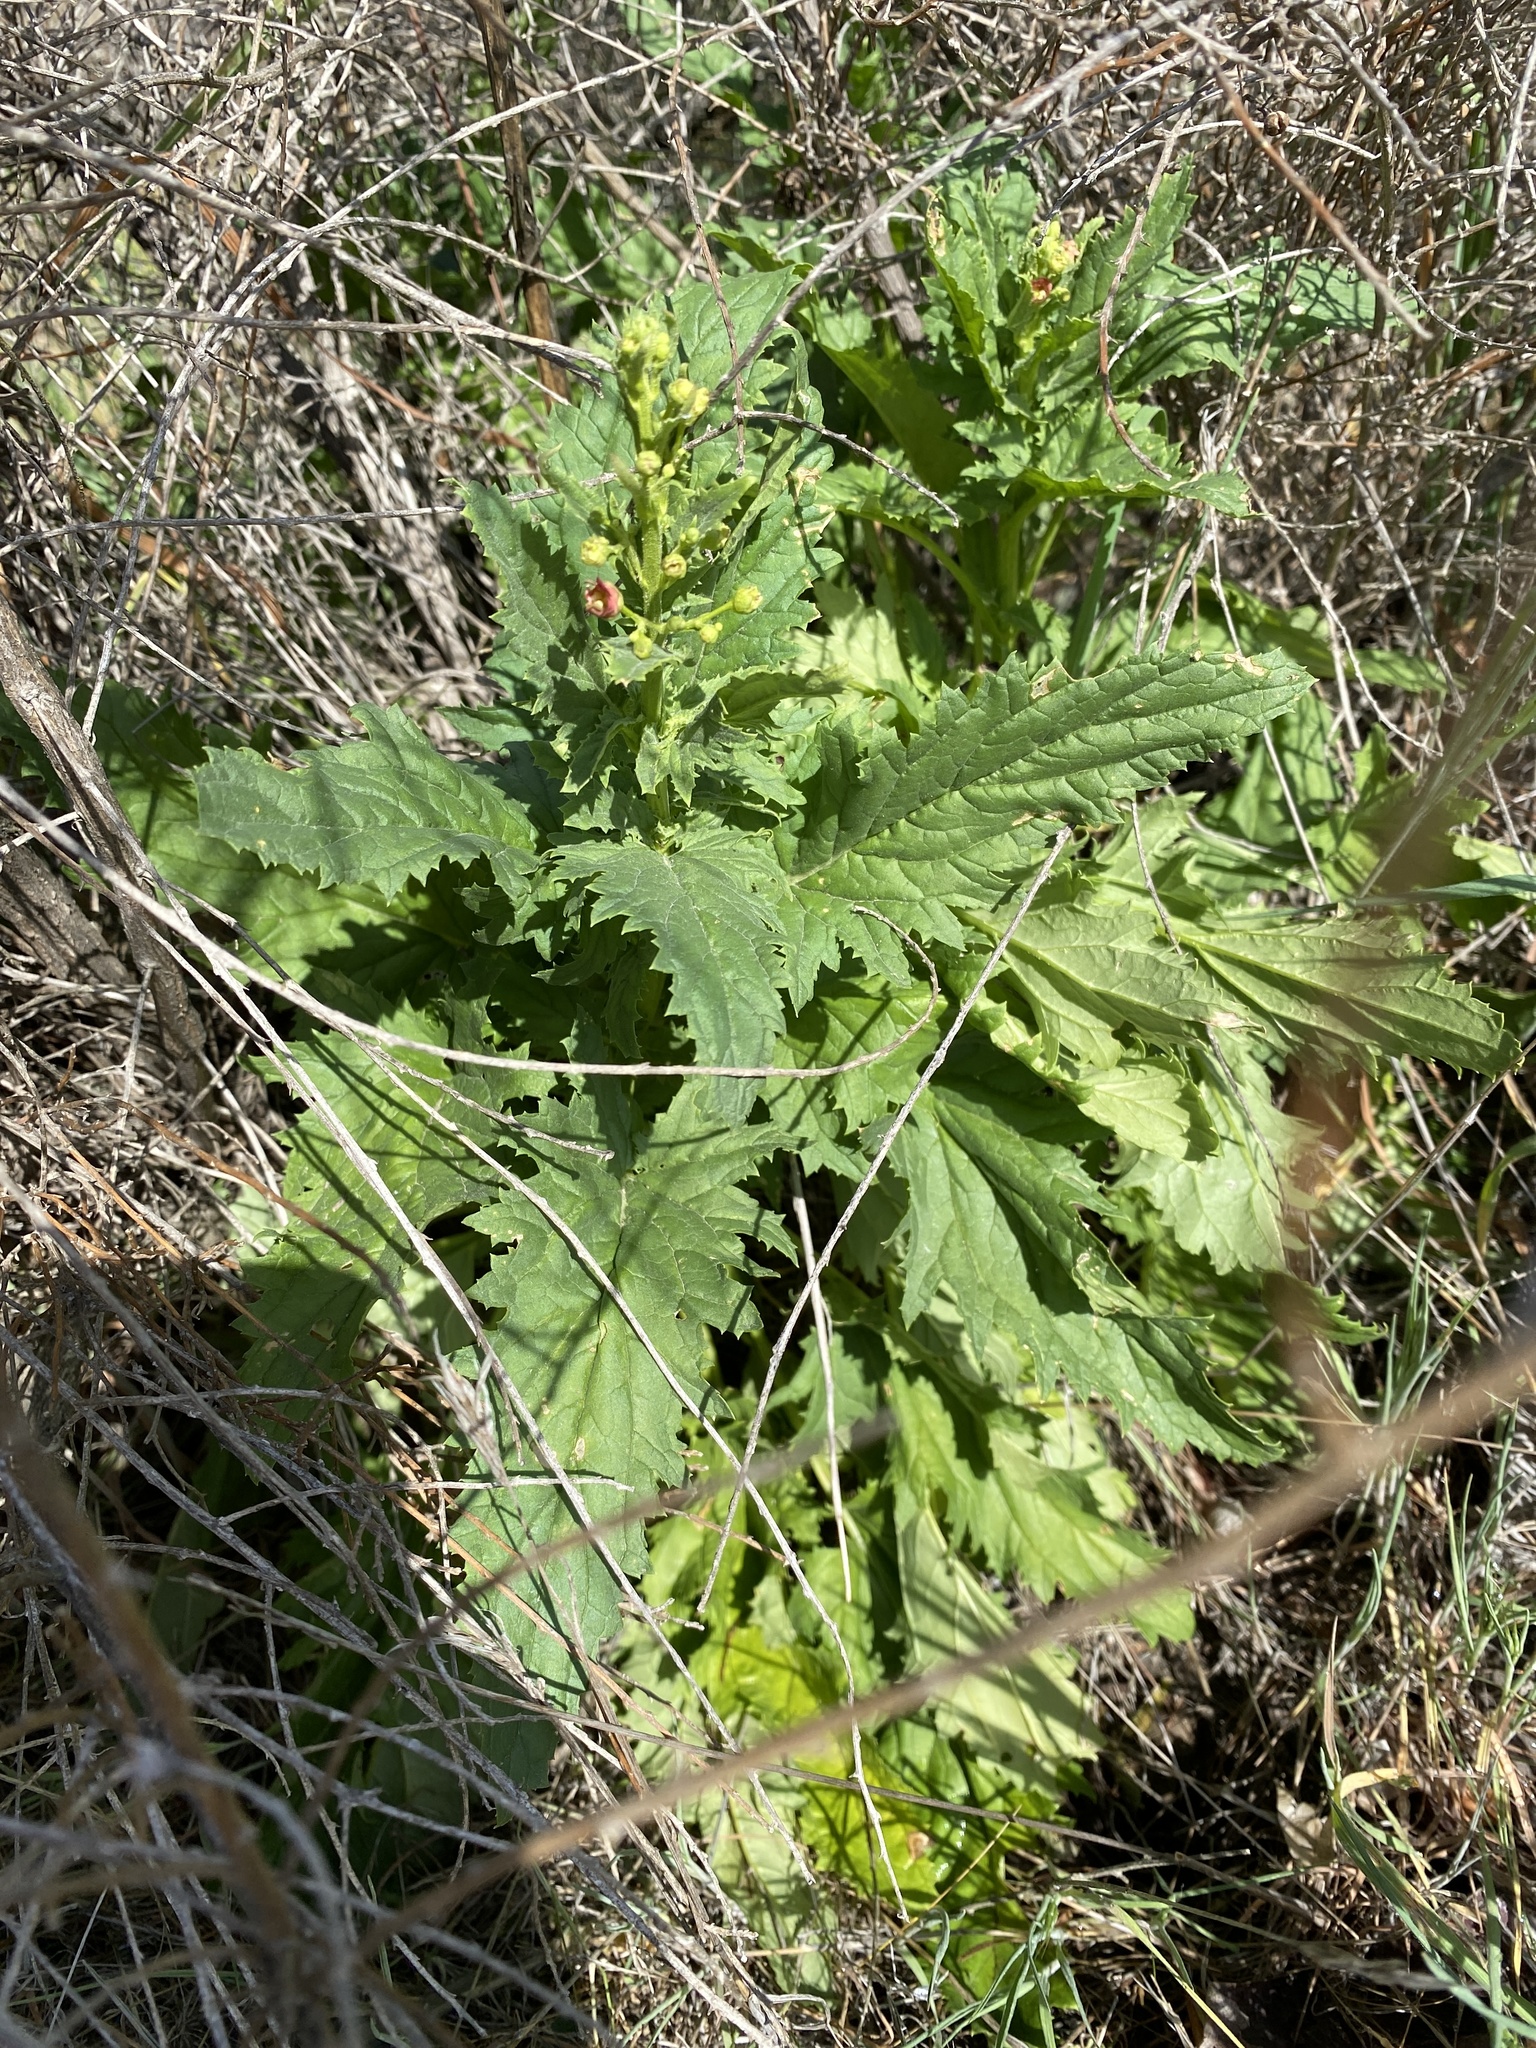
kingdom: Plantae
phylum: Tracheophyta
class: Magnoliopsida
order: Lamiales
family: Scrophulariaceae
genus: Scrophularia
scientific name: Scrophularia californica
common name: California figwort
